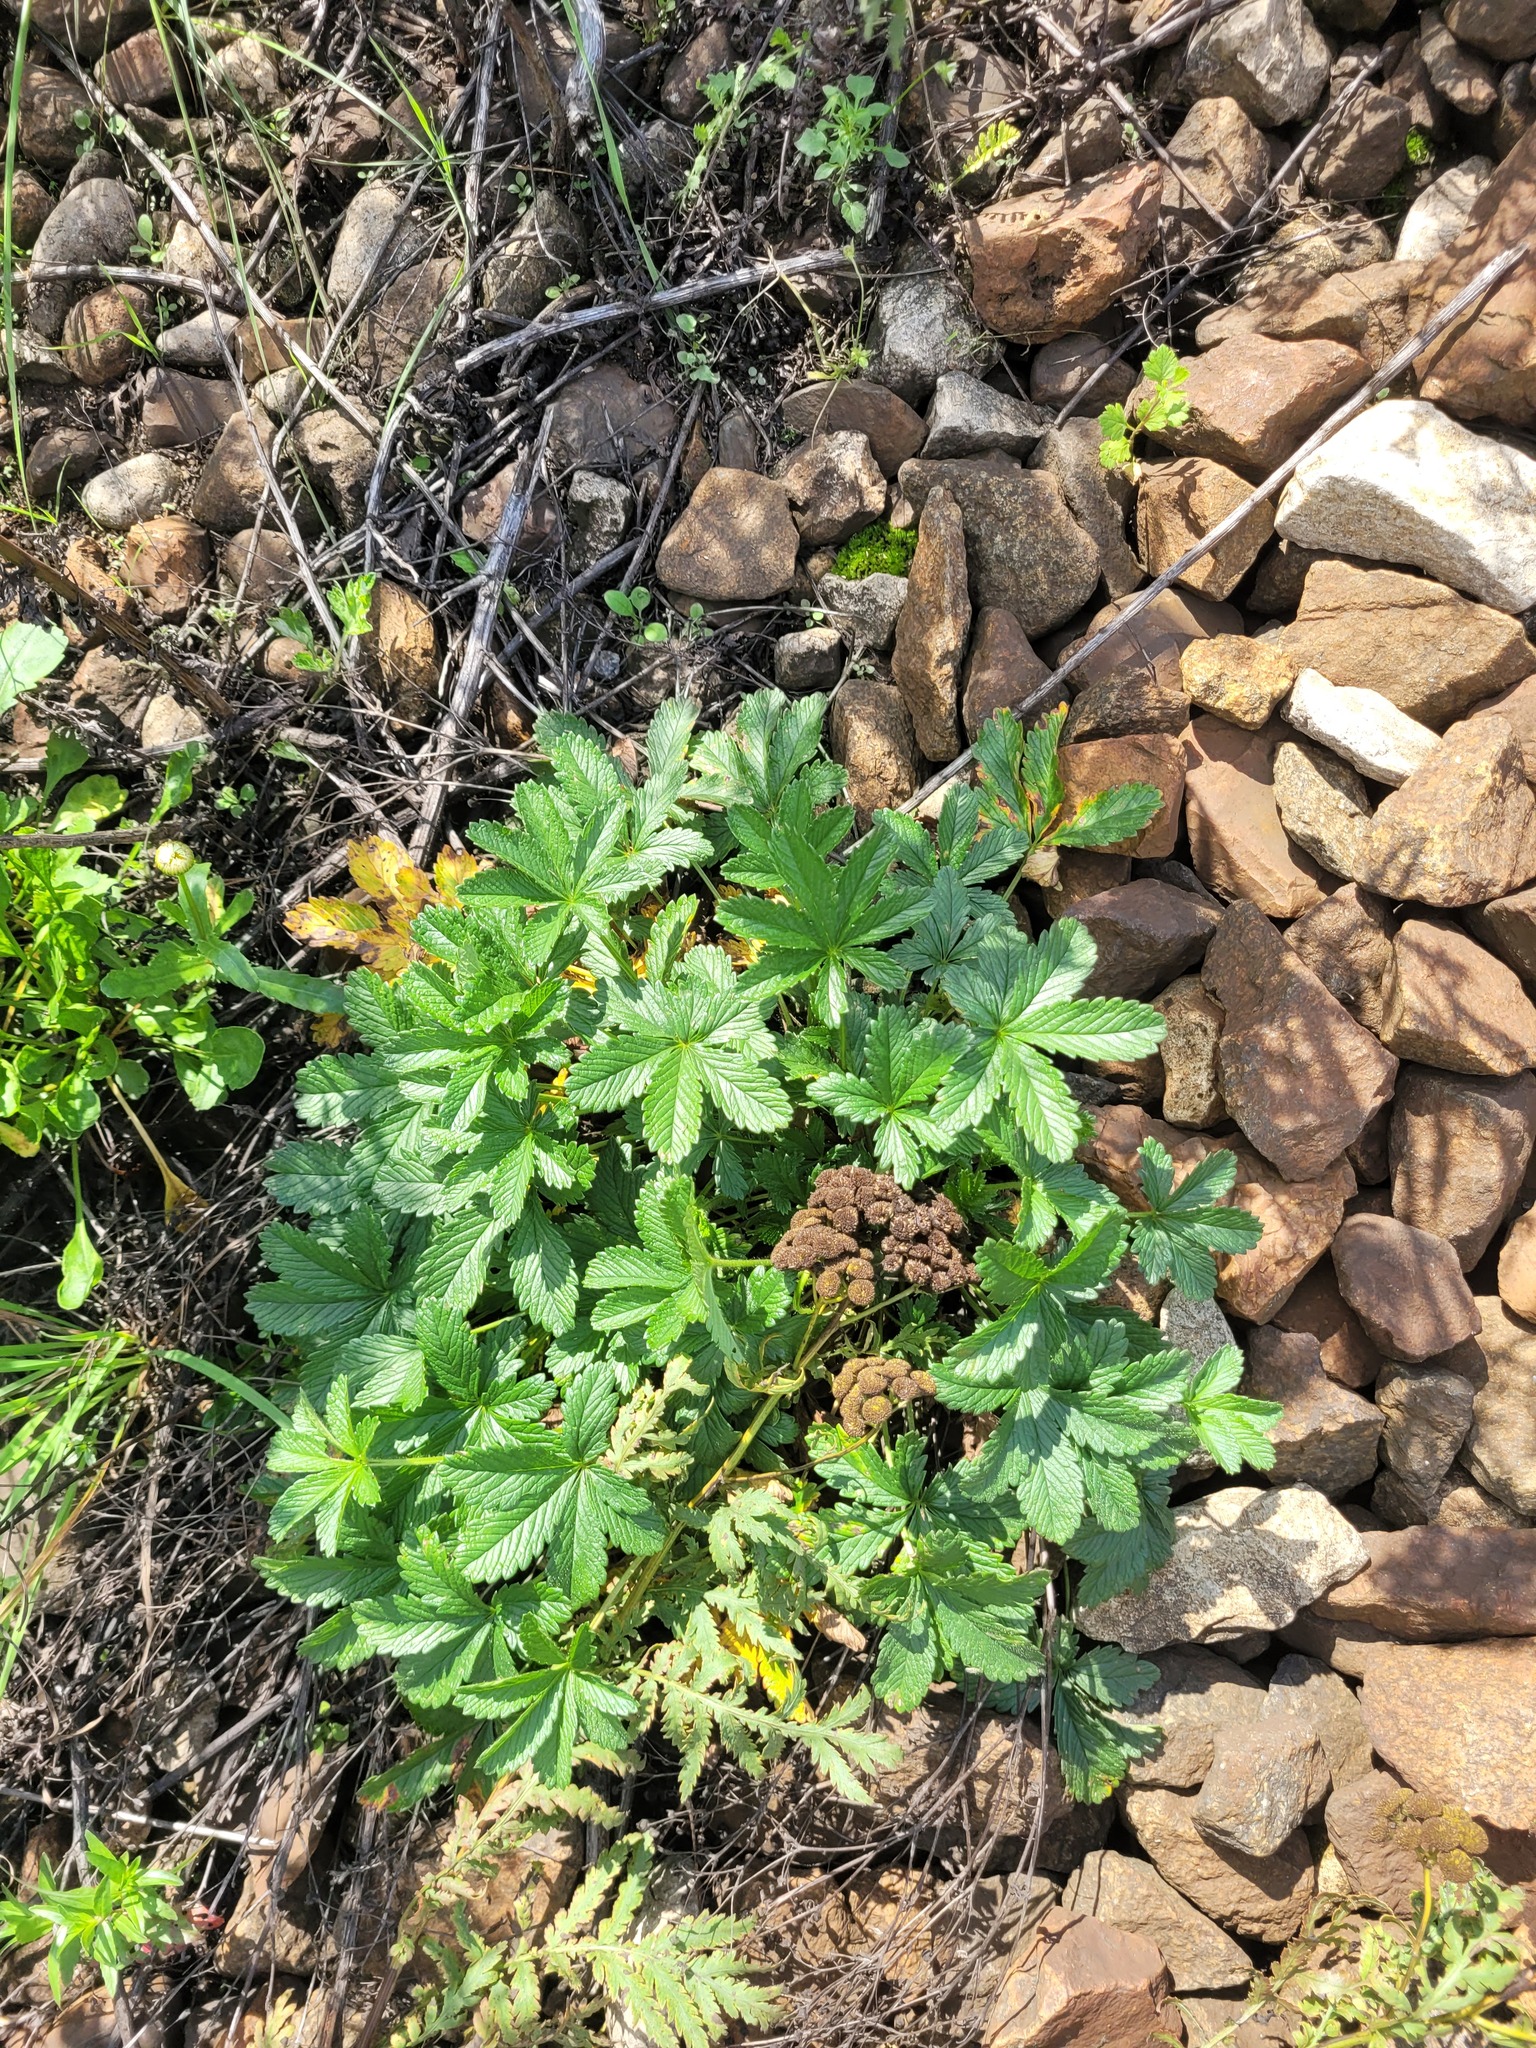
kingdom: Plantae
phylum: Tracheophyta
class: Magnoliopsida
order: Rosales
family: Rosaceae
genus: Potentilla
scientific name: Potentilla thuringiaca
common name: European cinquefoil
